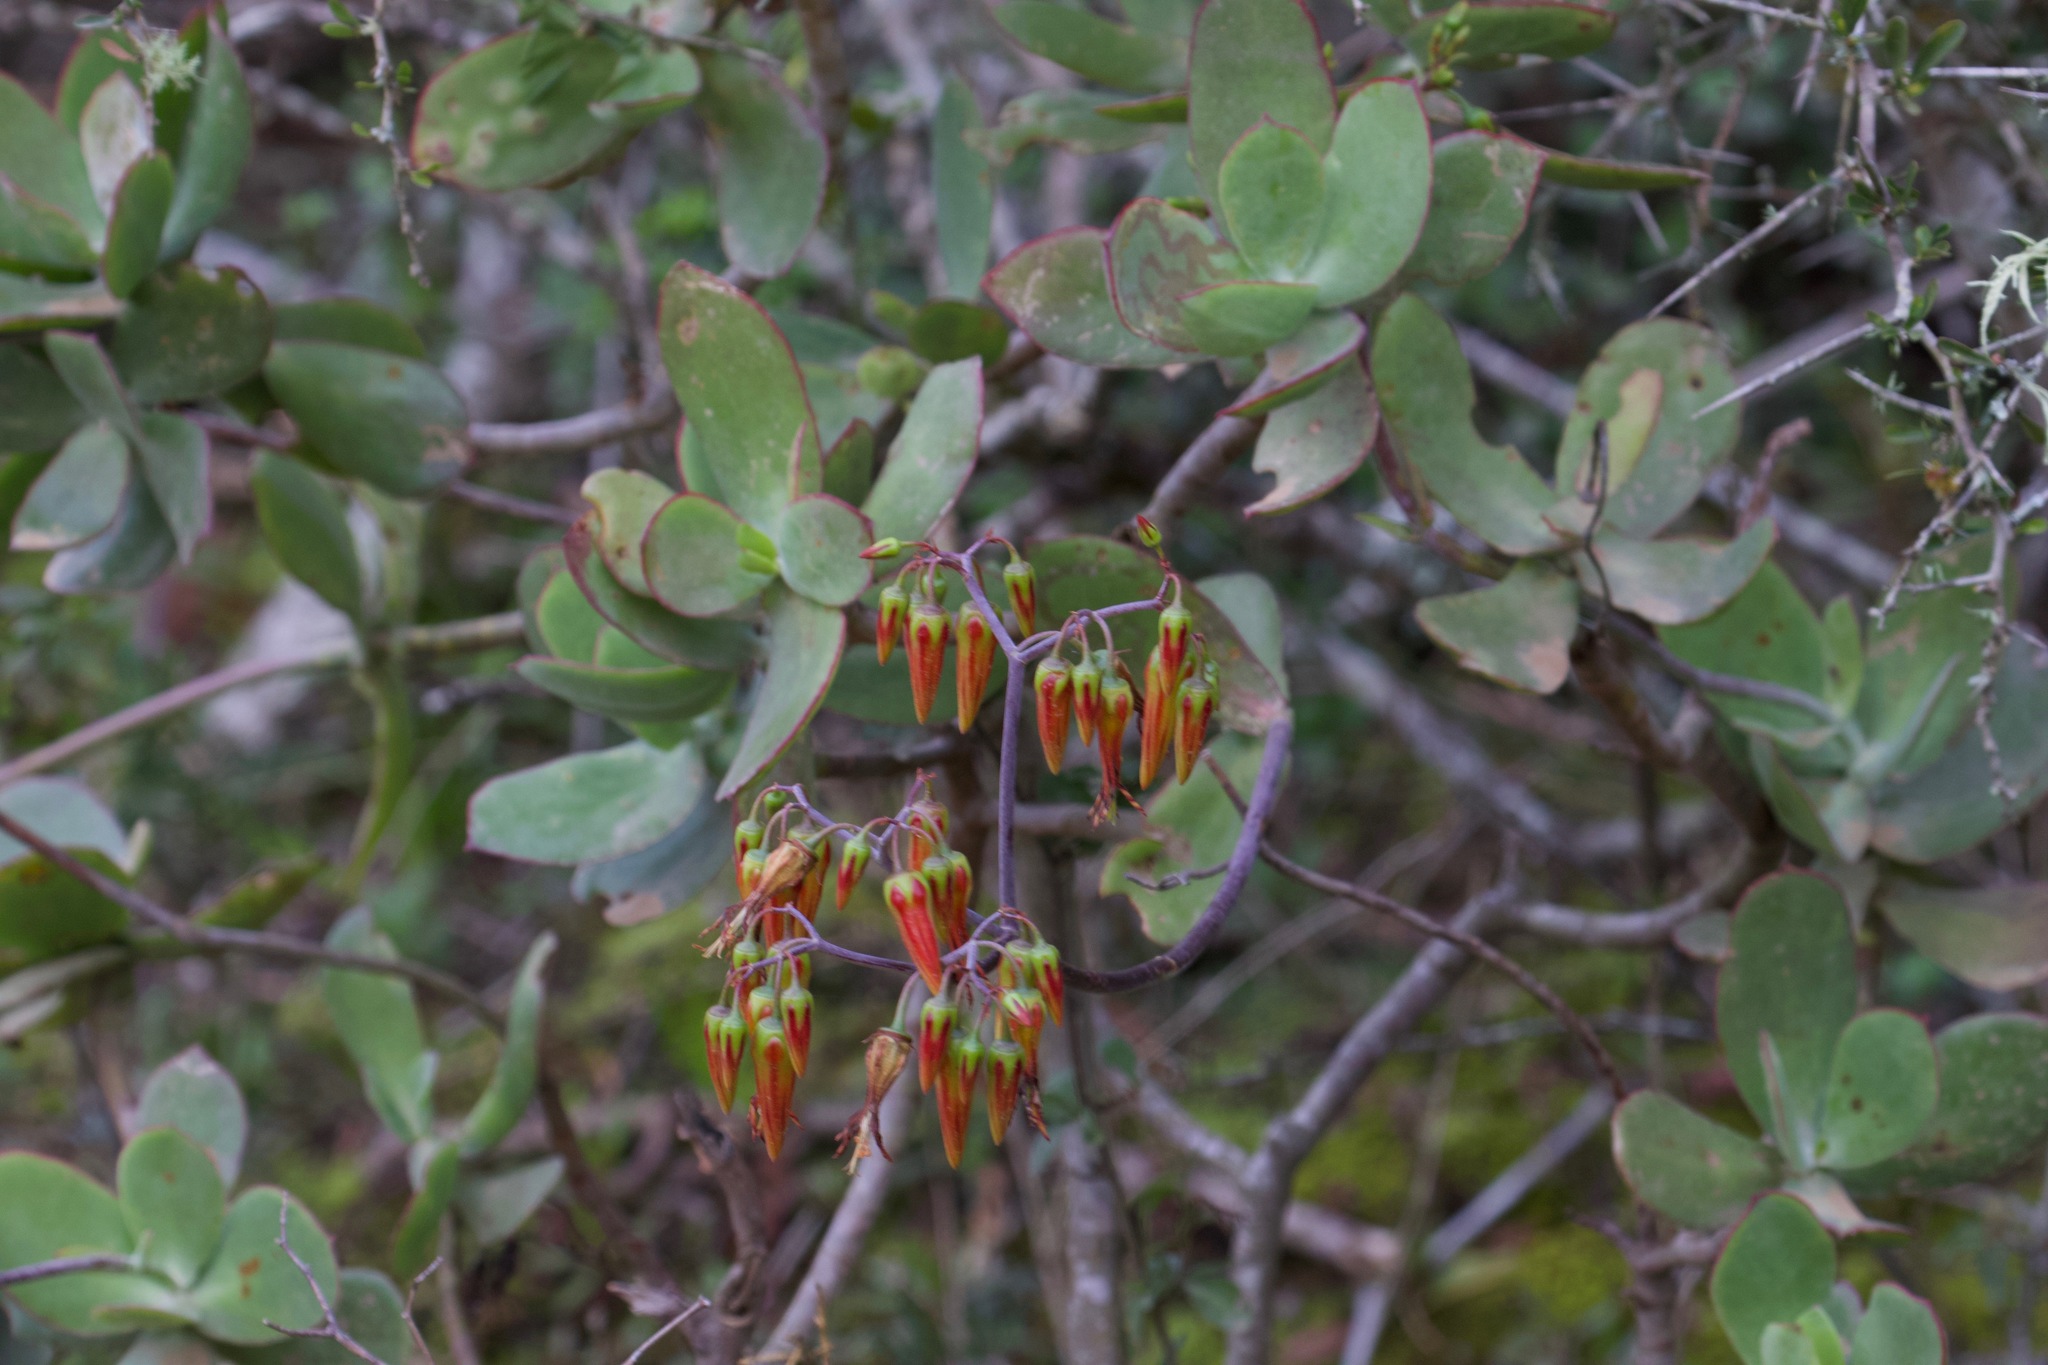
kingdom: Plantae
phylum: Tracheophyta
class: Magnoliopsida
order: Saxifragales
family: Crassulaceae
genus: Cotyledon
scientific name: Cotyledon velutina
